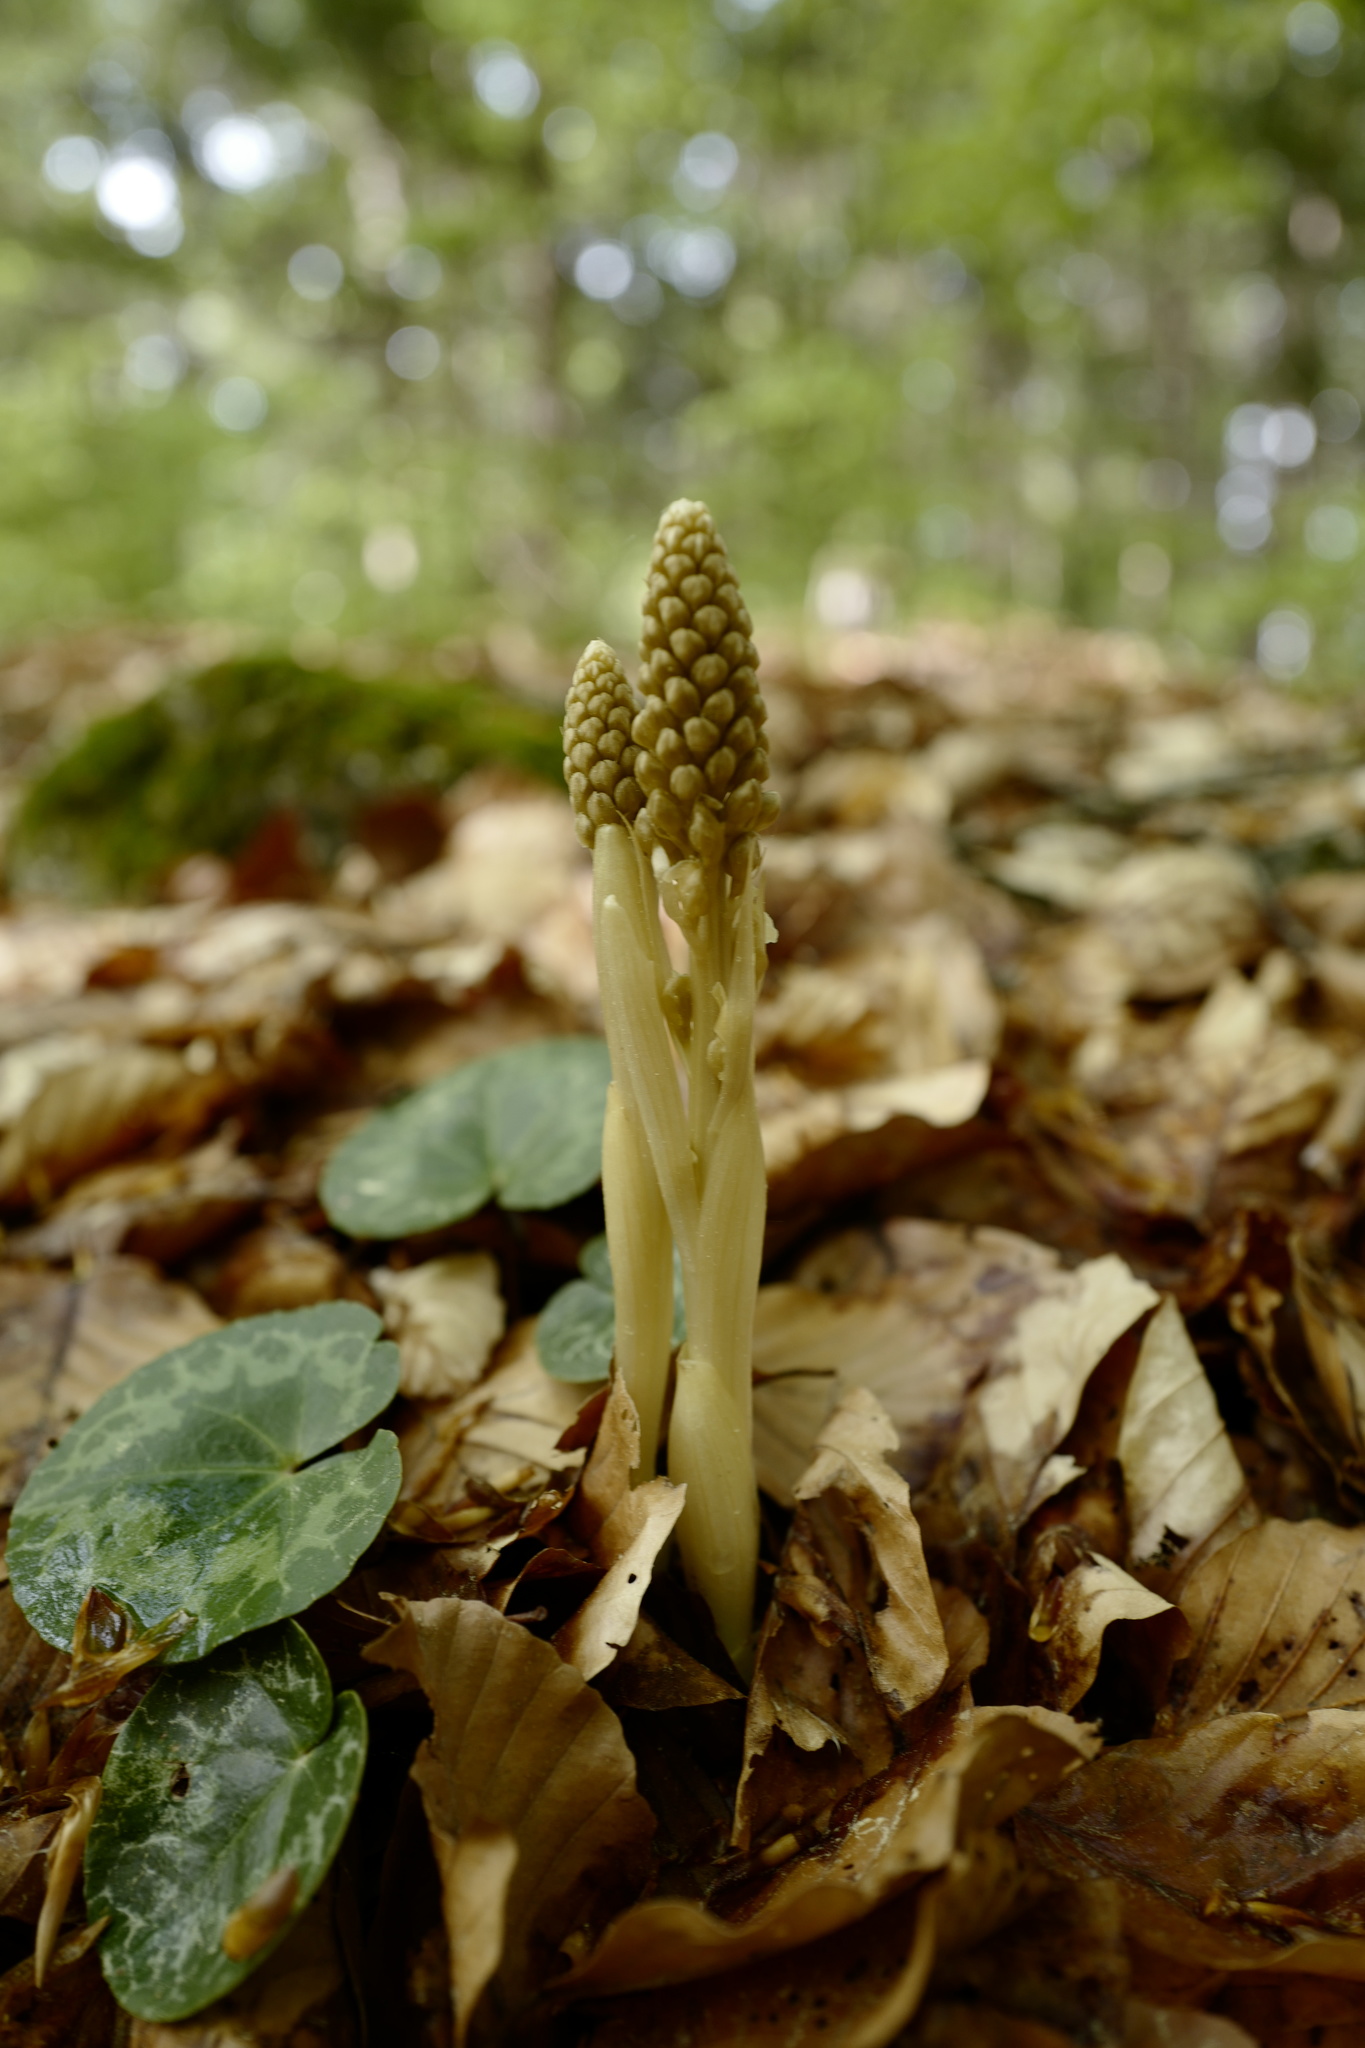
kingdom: Plantae
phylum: Tracheophyta
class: Liliopsida
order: Asparagales
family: Orchidaceae
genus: Neottia
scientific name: Neottia nidus-avis
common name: Bird's-nest orchid
